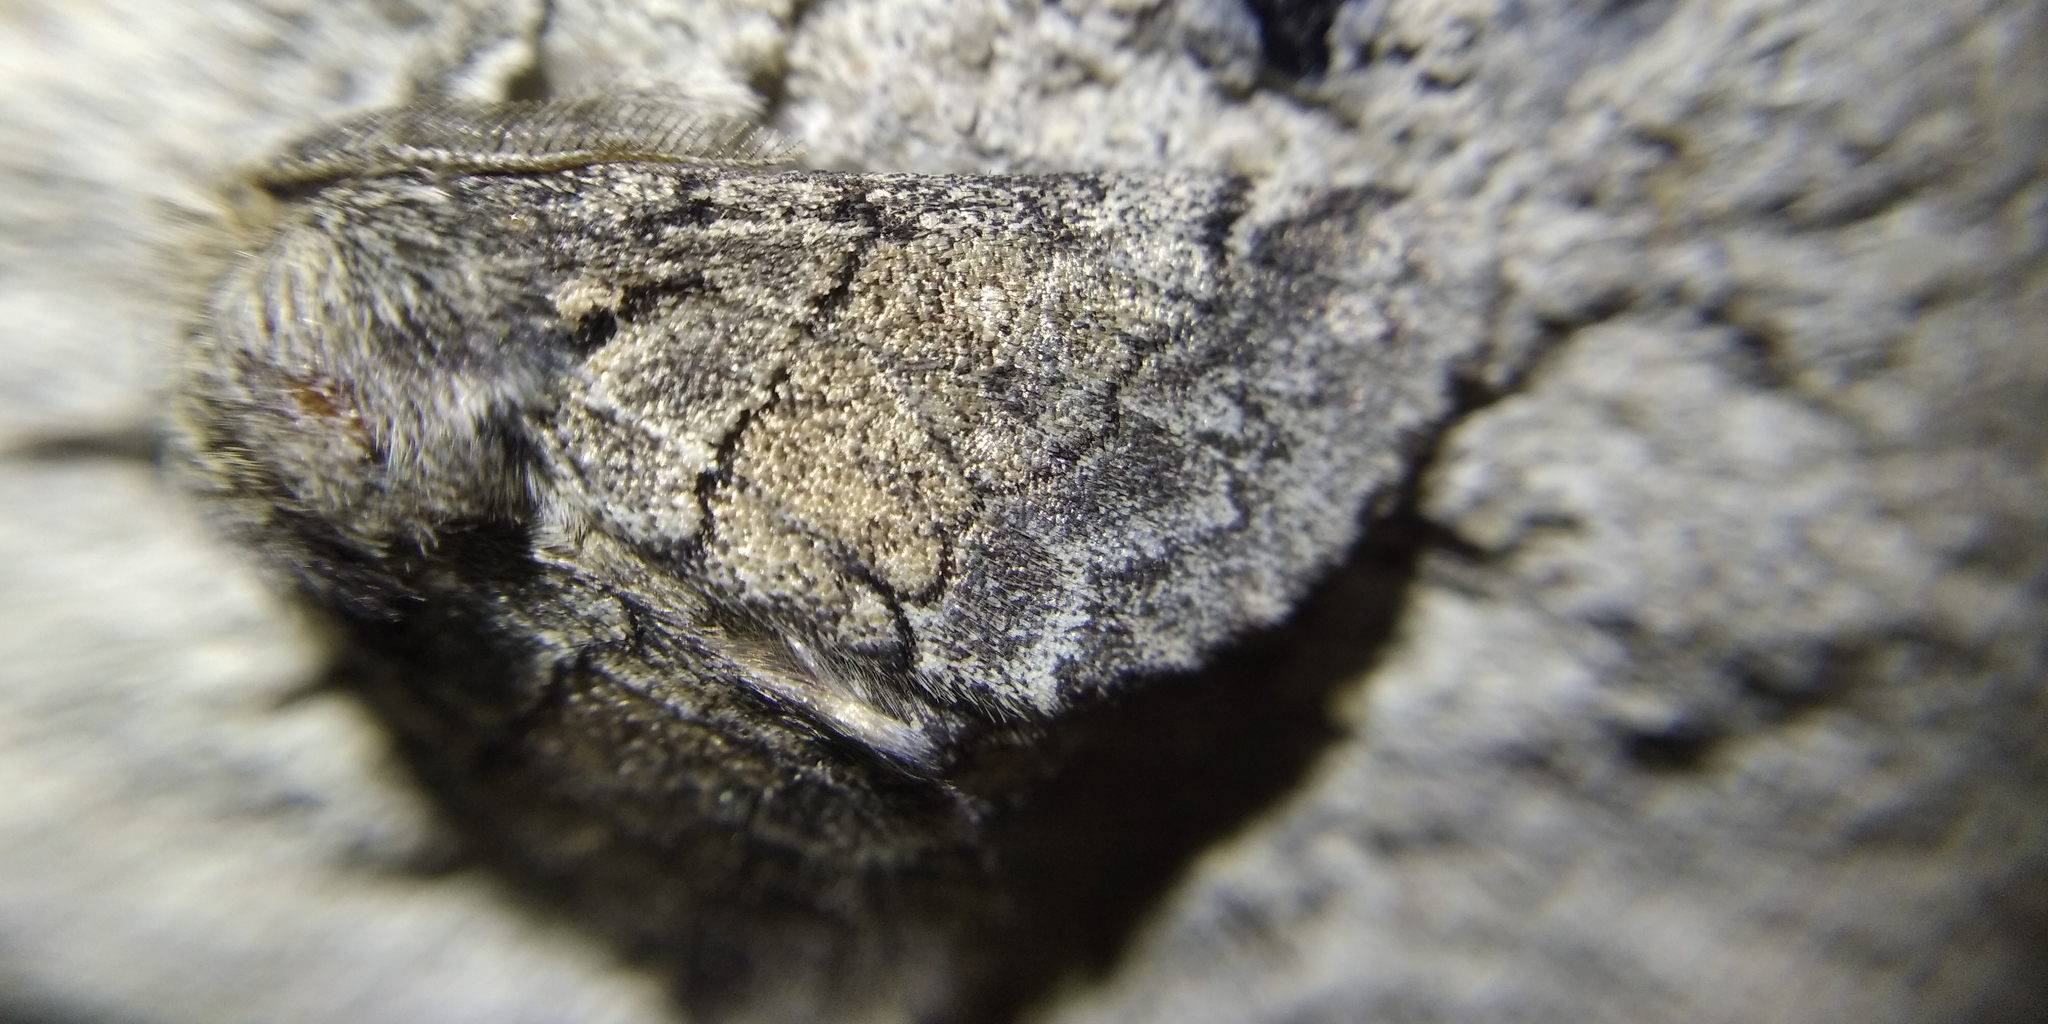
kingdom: Animalia
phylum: Arthropoda
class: Insecta
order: Lepidoptera
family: Notodontidae
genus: Gluphisia
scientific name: Gluphisia crenata
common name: Dusky marbled brown
